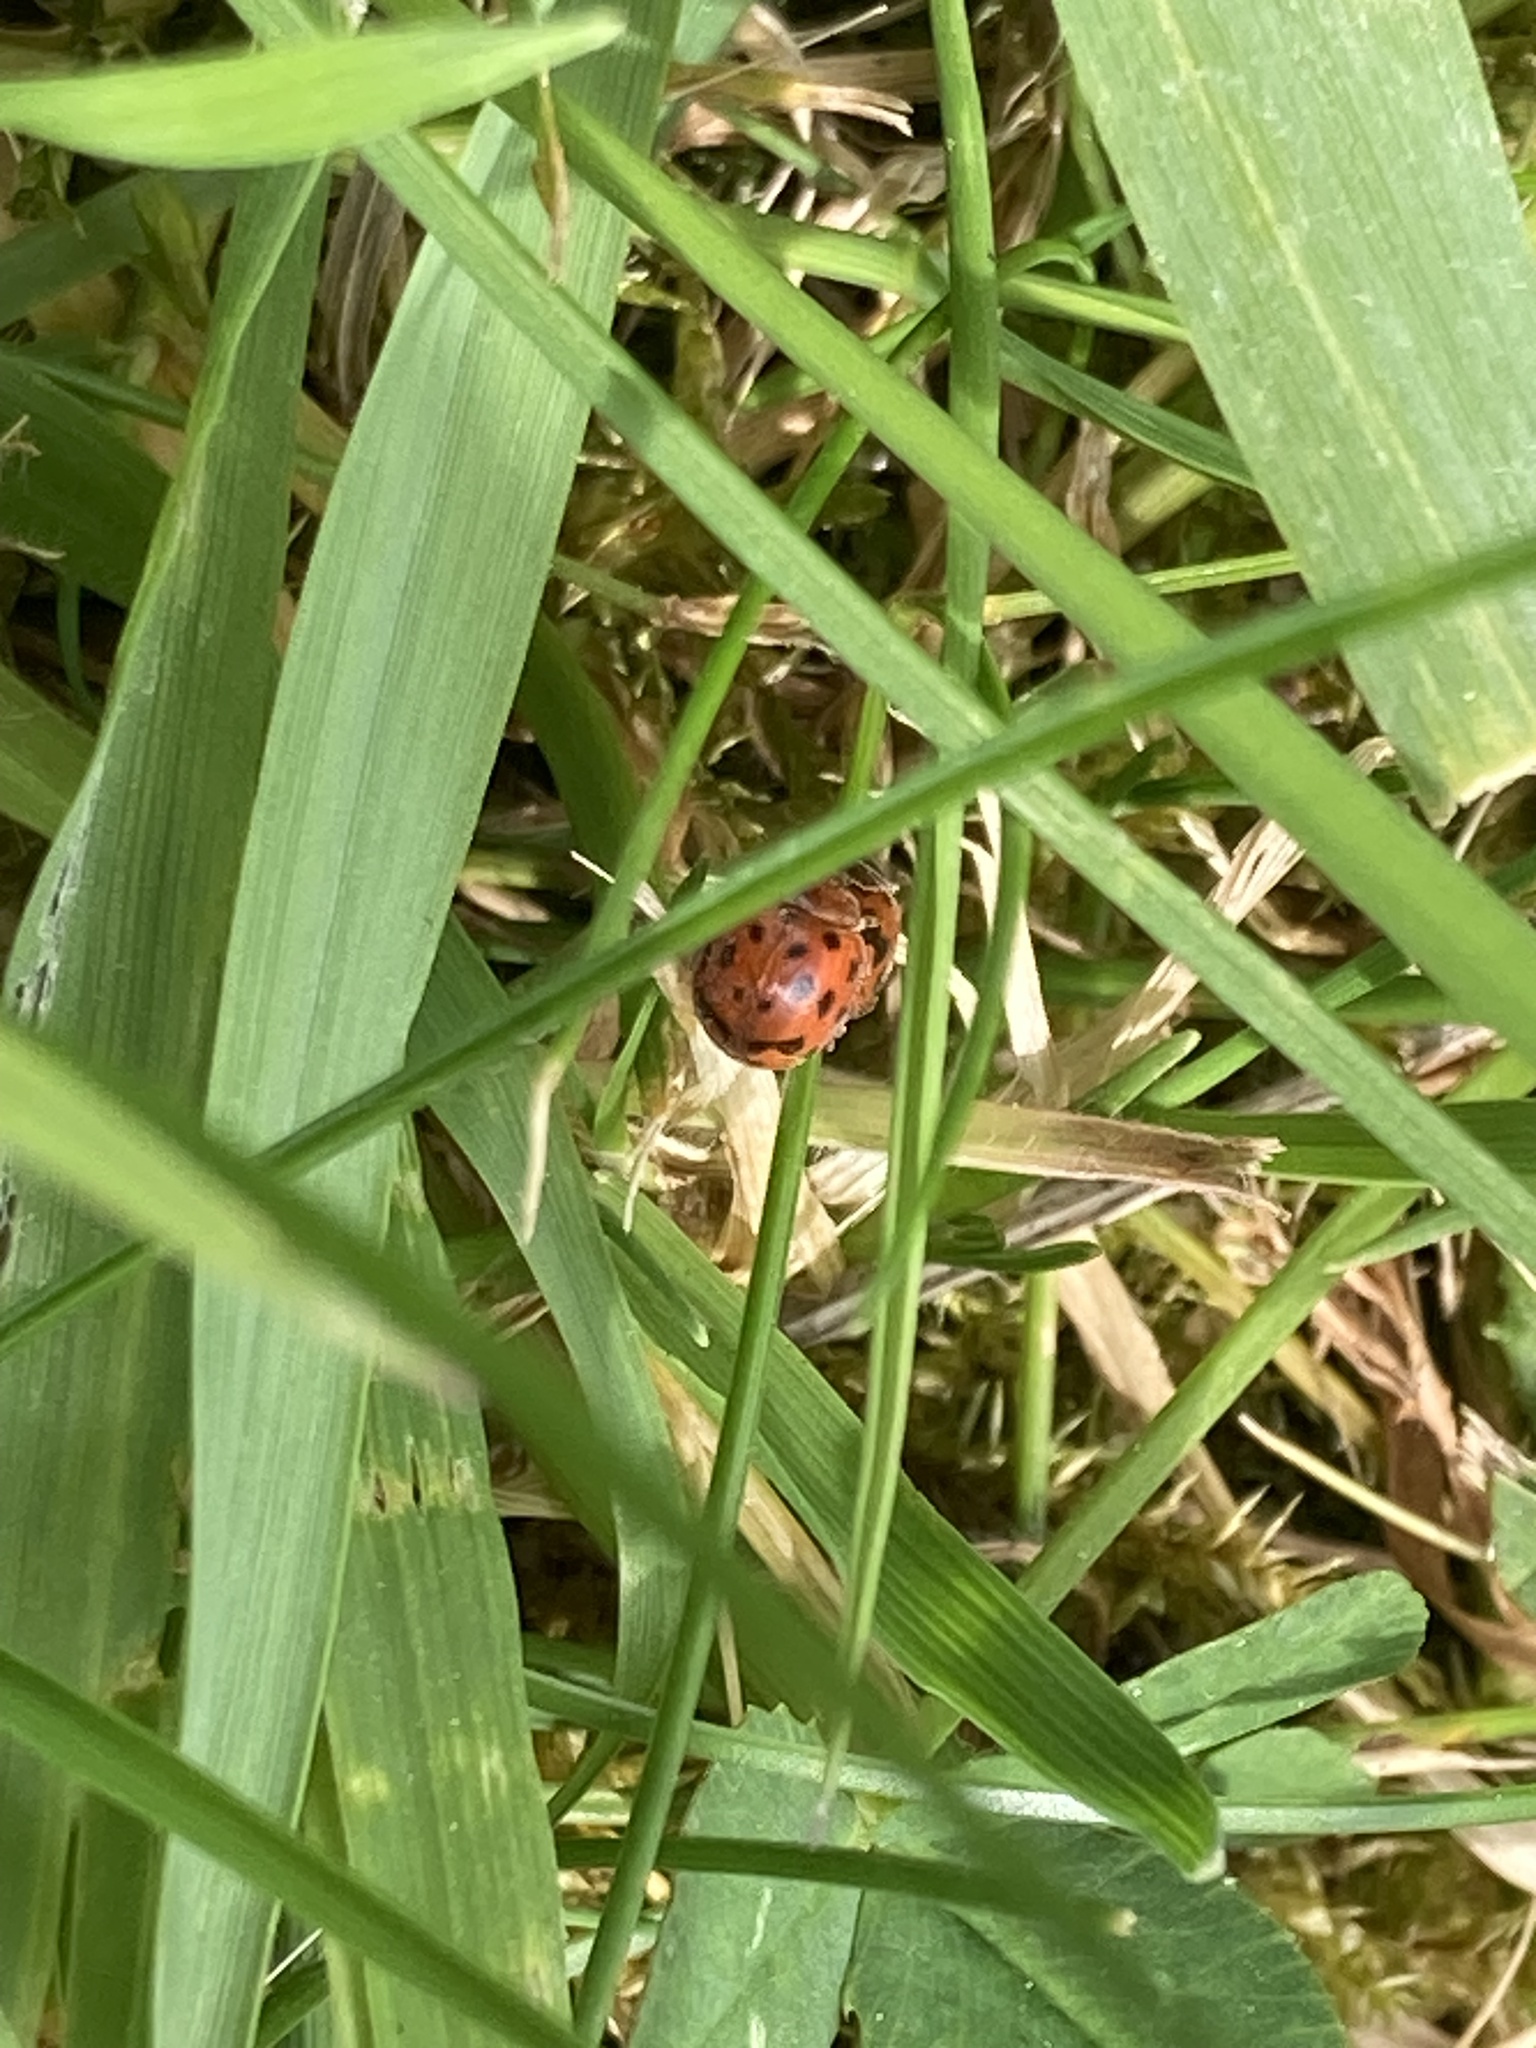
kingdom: Animalia
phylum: Arthropoda
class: Insecta
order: Coleoptera
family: Coccinellidae
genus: Subcoccinella
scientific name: Subcoccinella vigintiquatuorpunctata
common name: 24-spot ladybird
